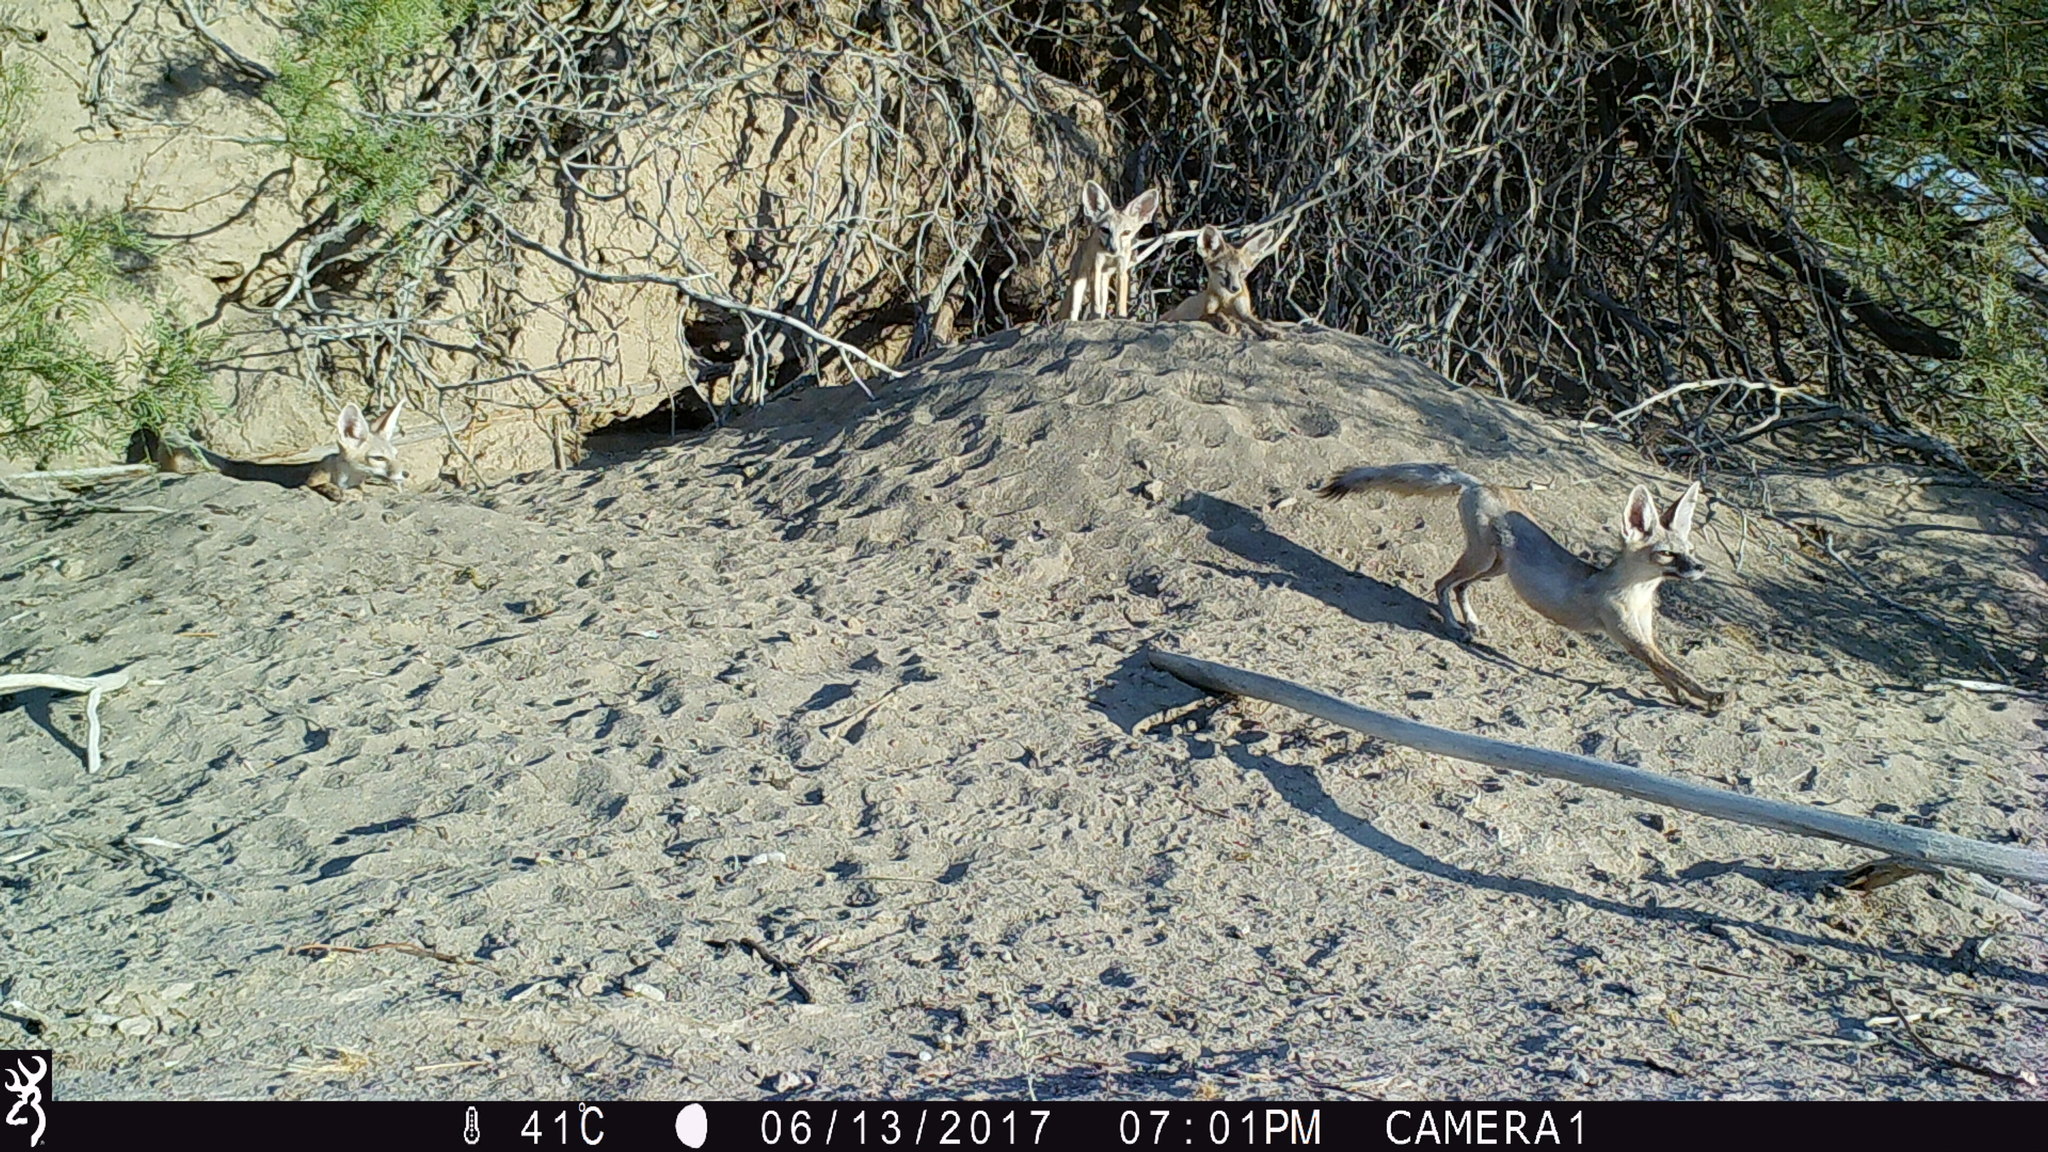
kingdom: Animalia
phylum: Chordata
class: Mammalia
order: Carnivora
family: Canidae
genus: Vulpes
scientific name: Vulpes macrotis
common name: Kit fox
